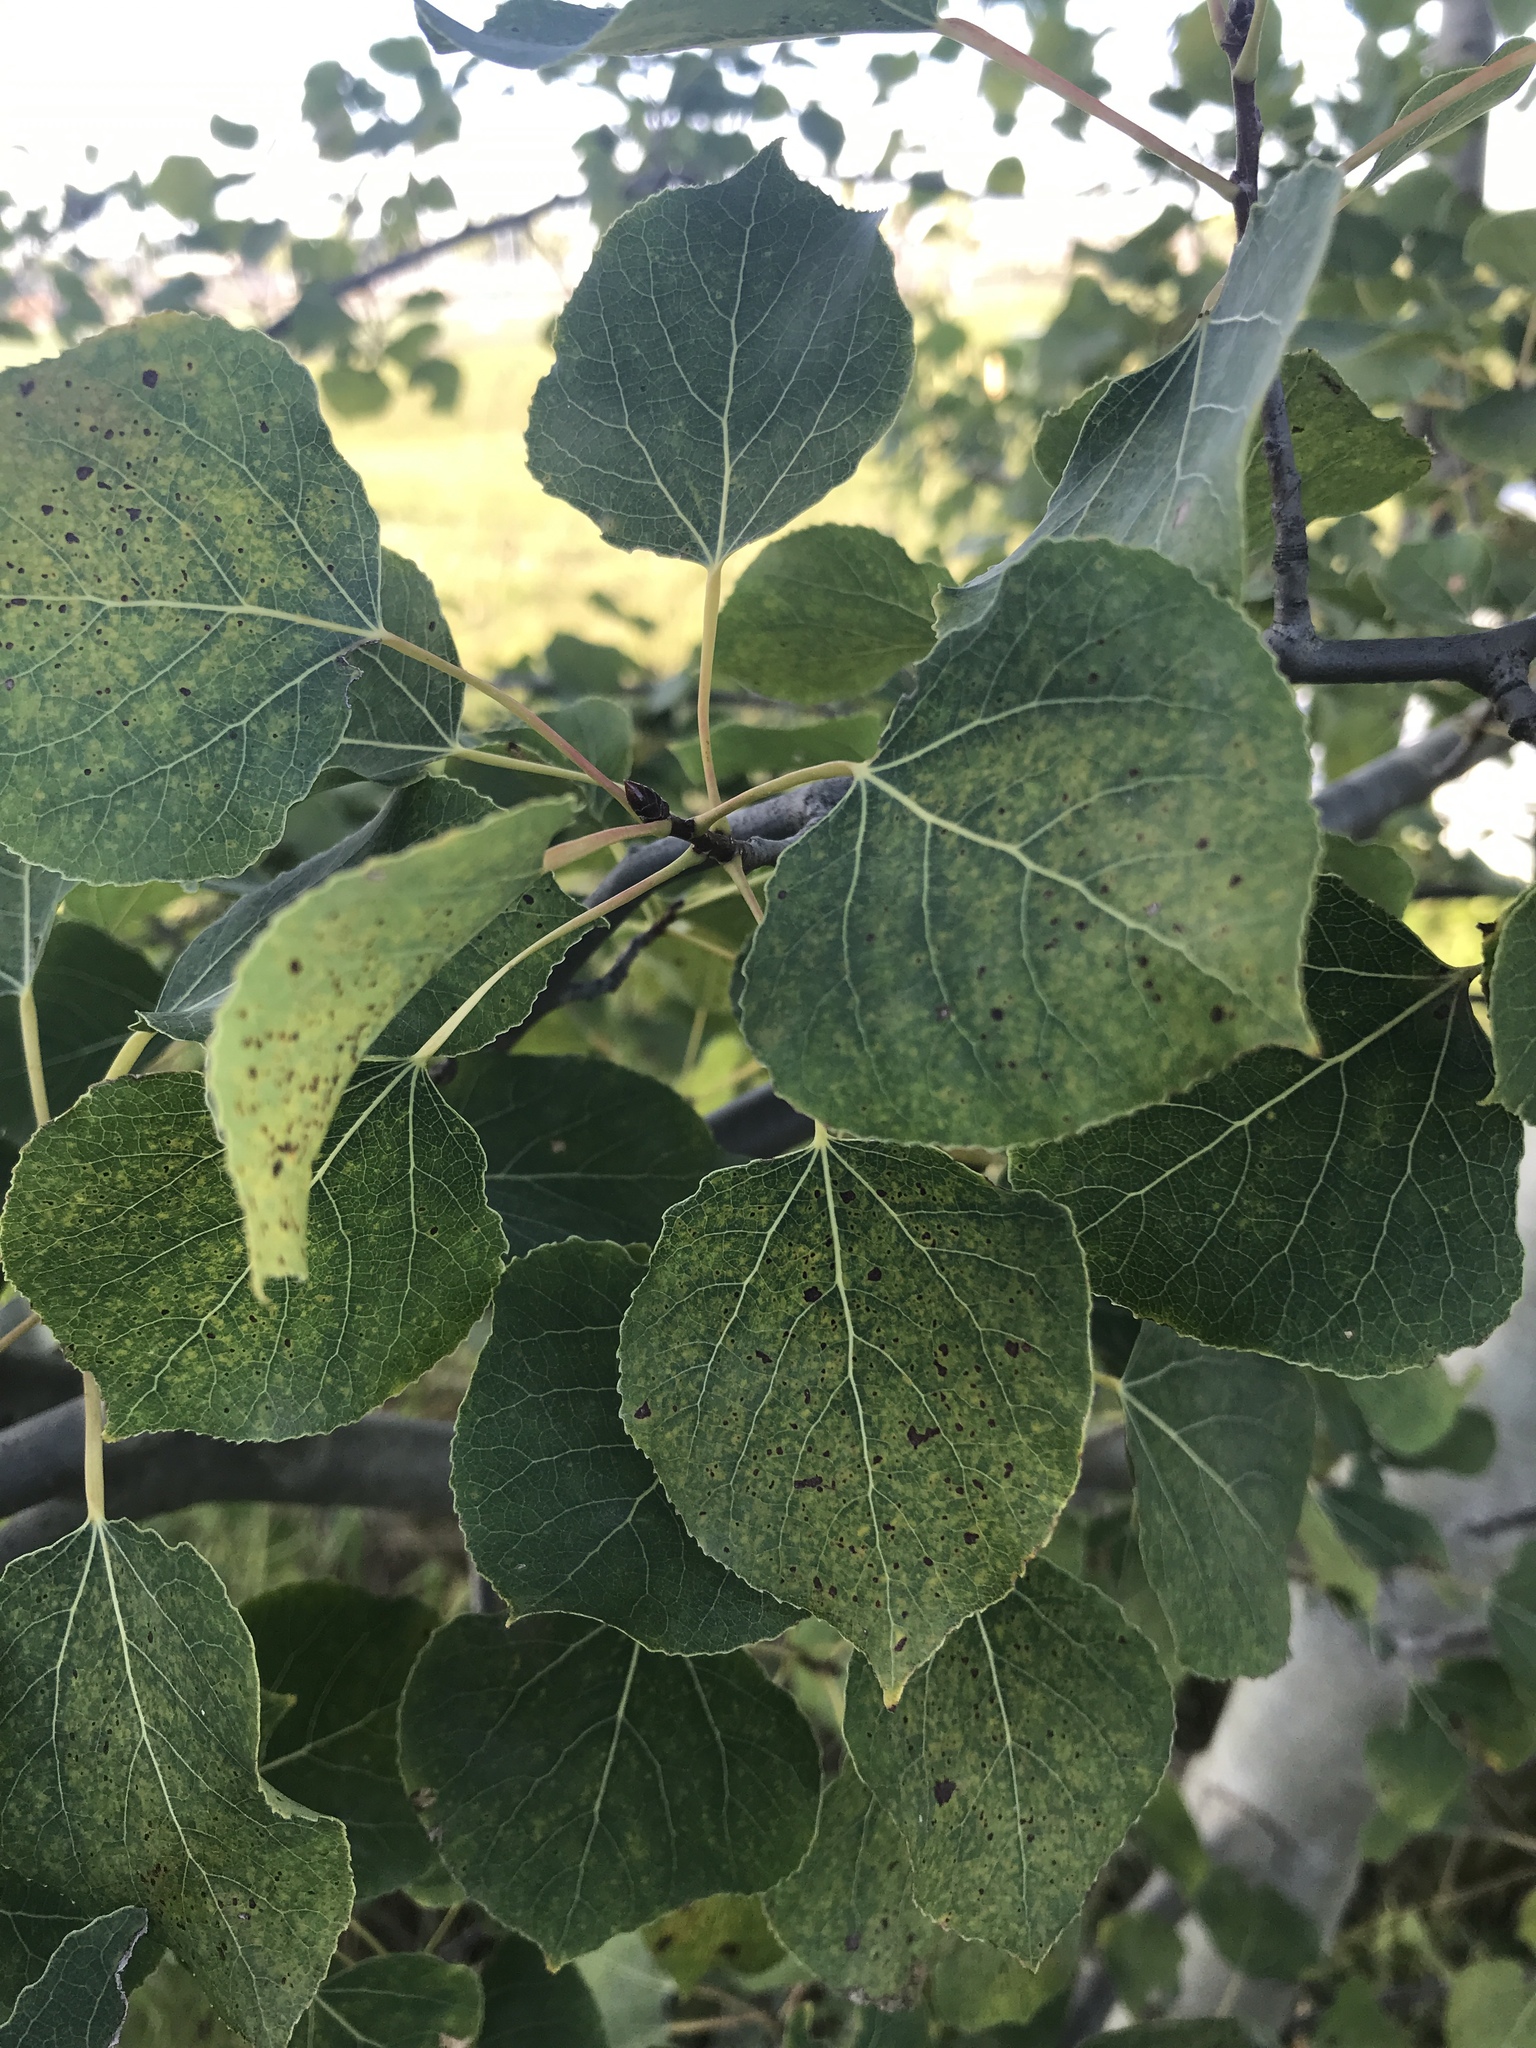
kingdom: Plantae
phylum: Tracheophyta
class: Magnoliopsida
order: Malpighiales
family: Salicaceae
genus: Populus
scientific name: Populus tremuloides
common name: Quaking aspen
